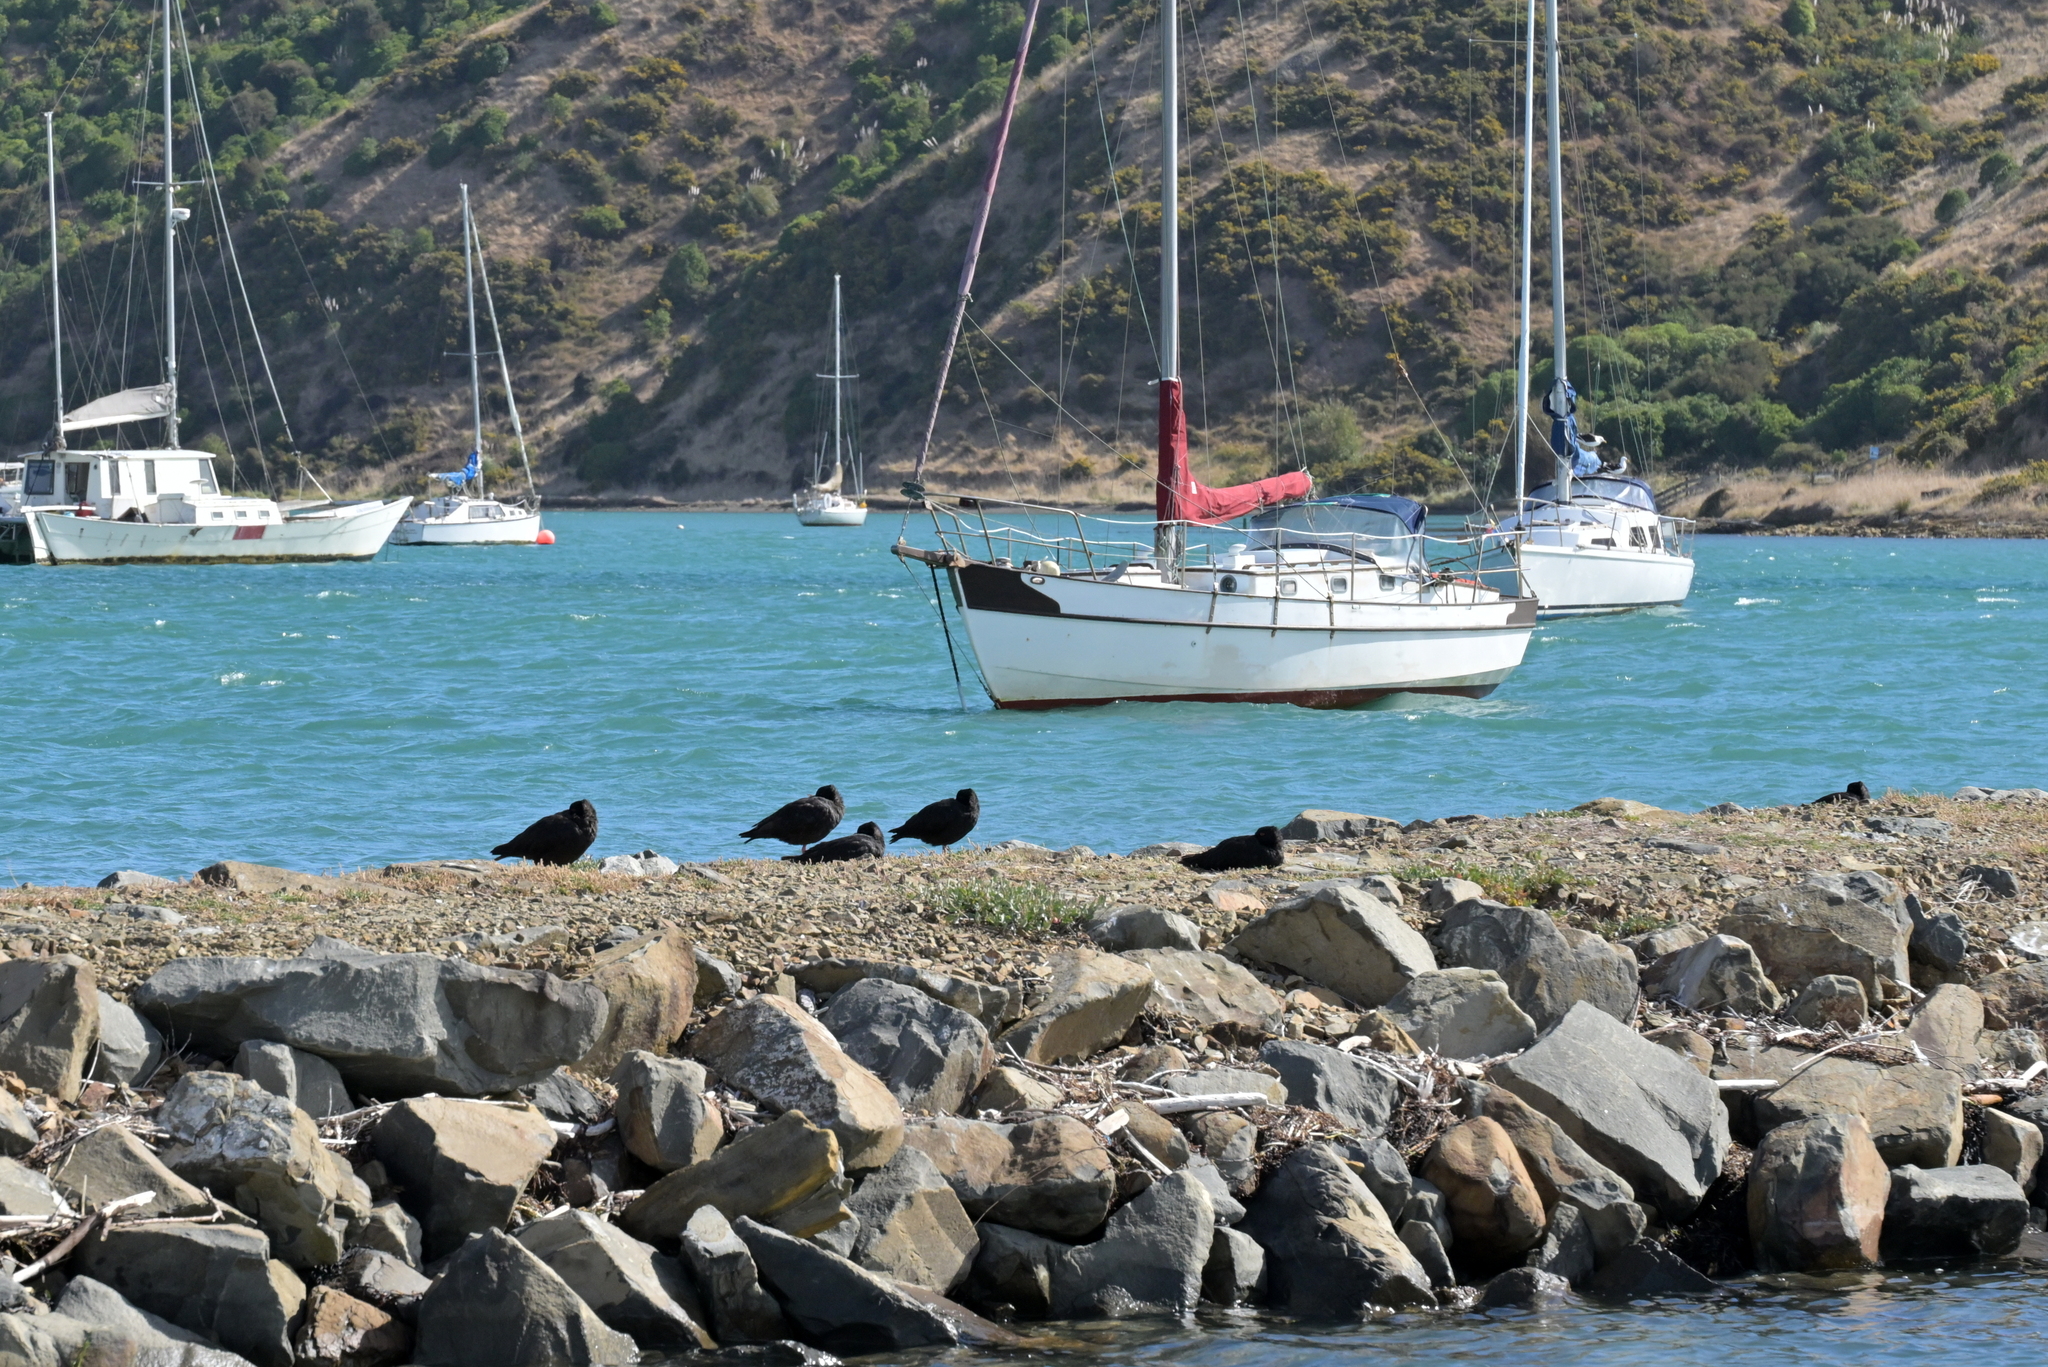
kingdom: Animalia
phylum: Chordata
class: Aves
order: Charadriiformes
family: Haematopodidae
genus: Haematopus
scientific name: Haematopus unicolor
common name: Variable oystercatcher
